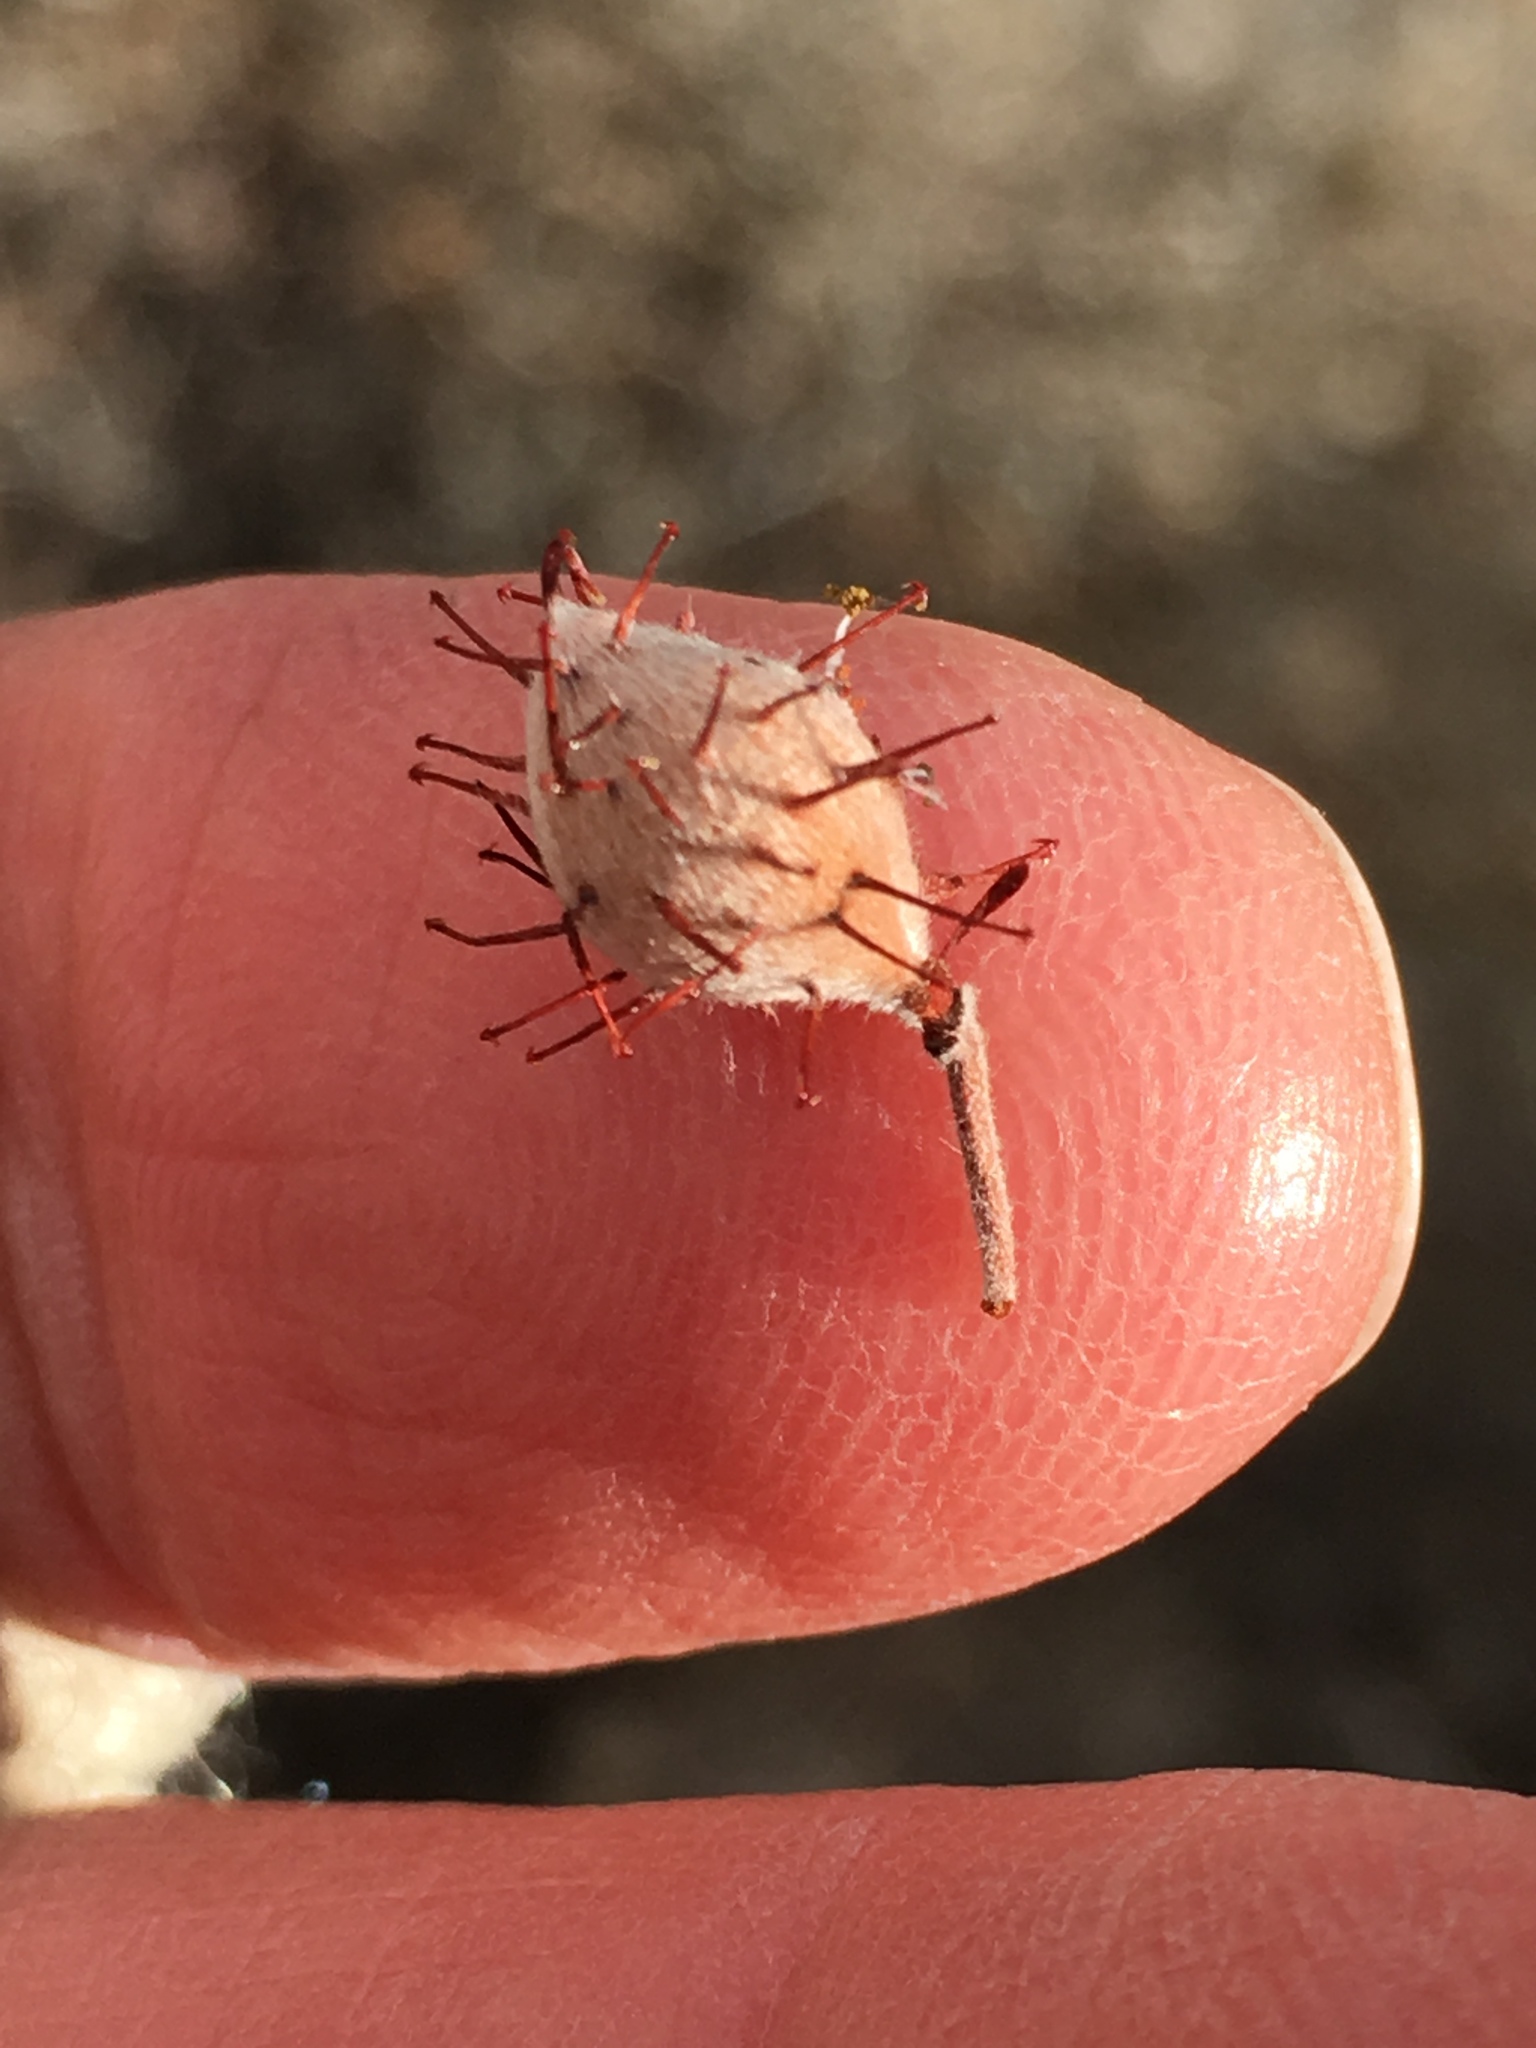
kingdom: Plantae
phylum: Tracheophyta
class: Magnoliopsida
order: Zygophyllales
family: Krameriaceae
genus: Krameria
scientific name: Krameria bicolor
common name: White ratany
